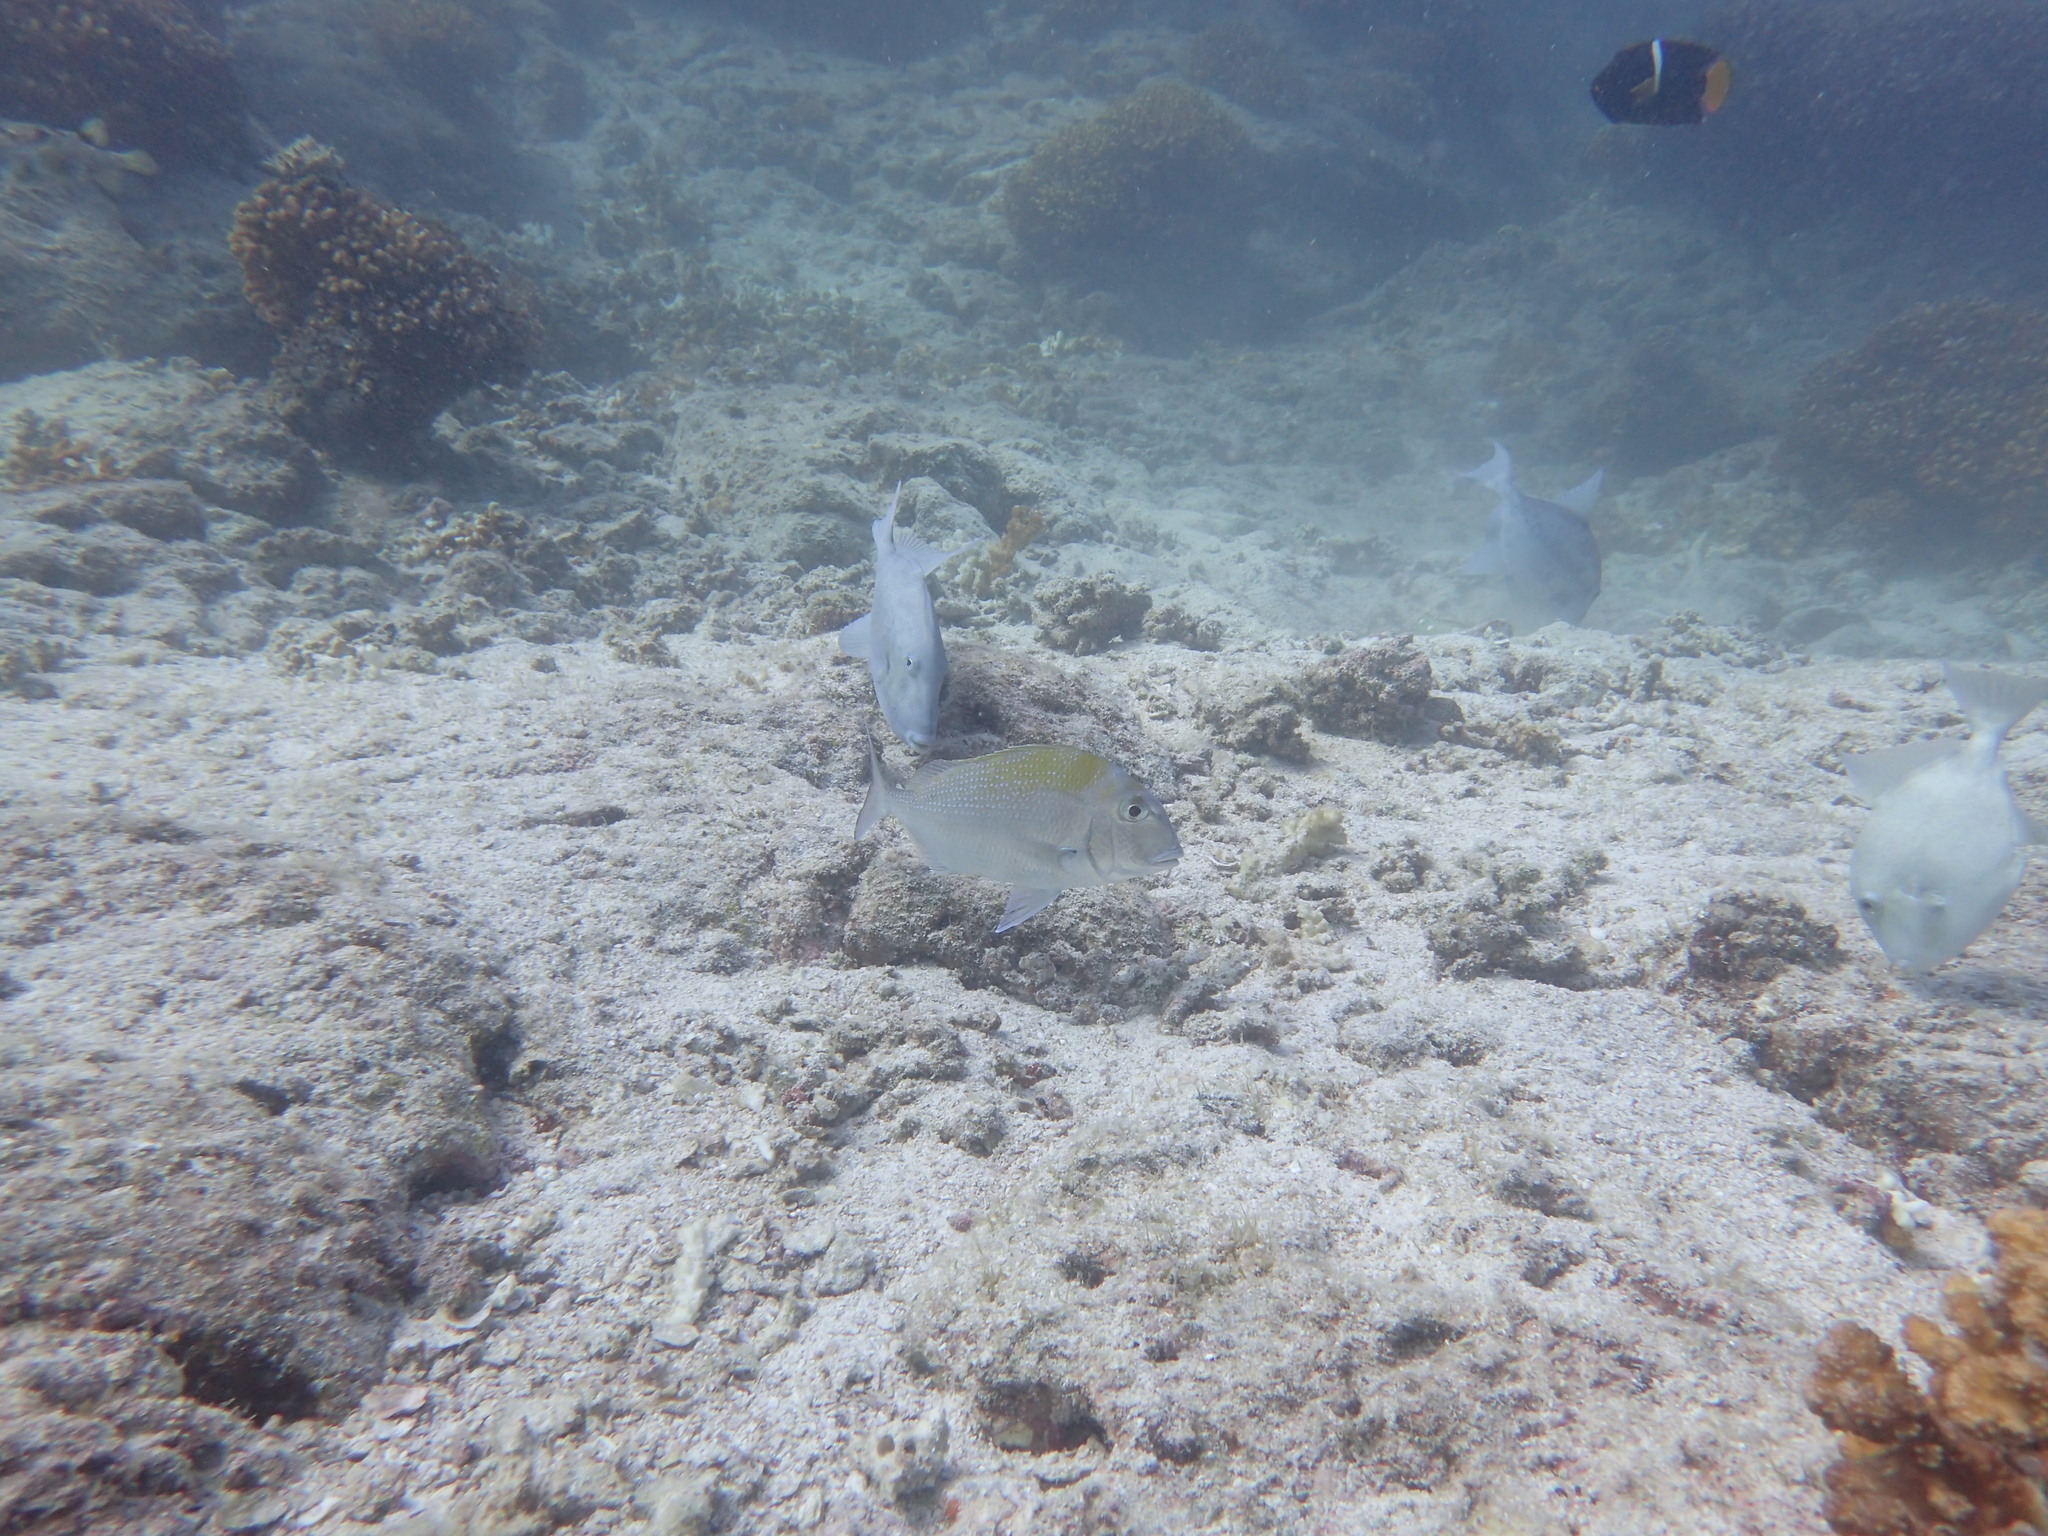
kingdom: Animalia
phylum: Chordata
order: Perciformes
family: Sparidae
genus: Calamus
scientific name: Calamus brachysomus
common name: Pacific porgy
